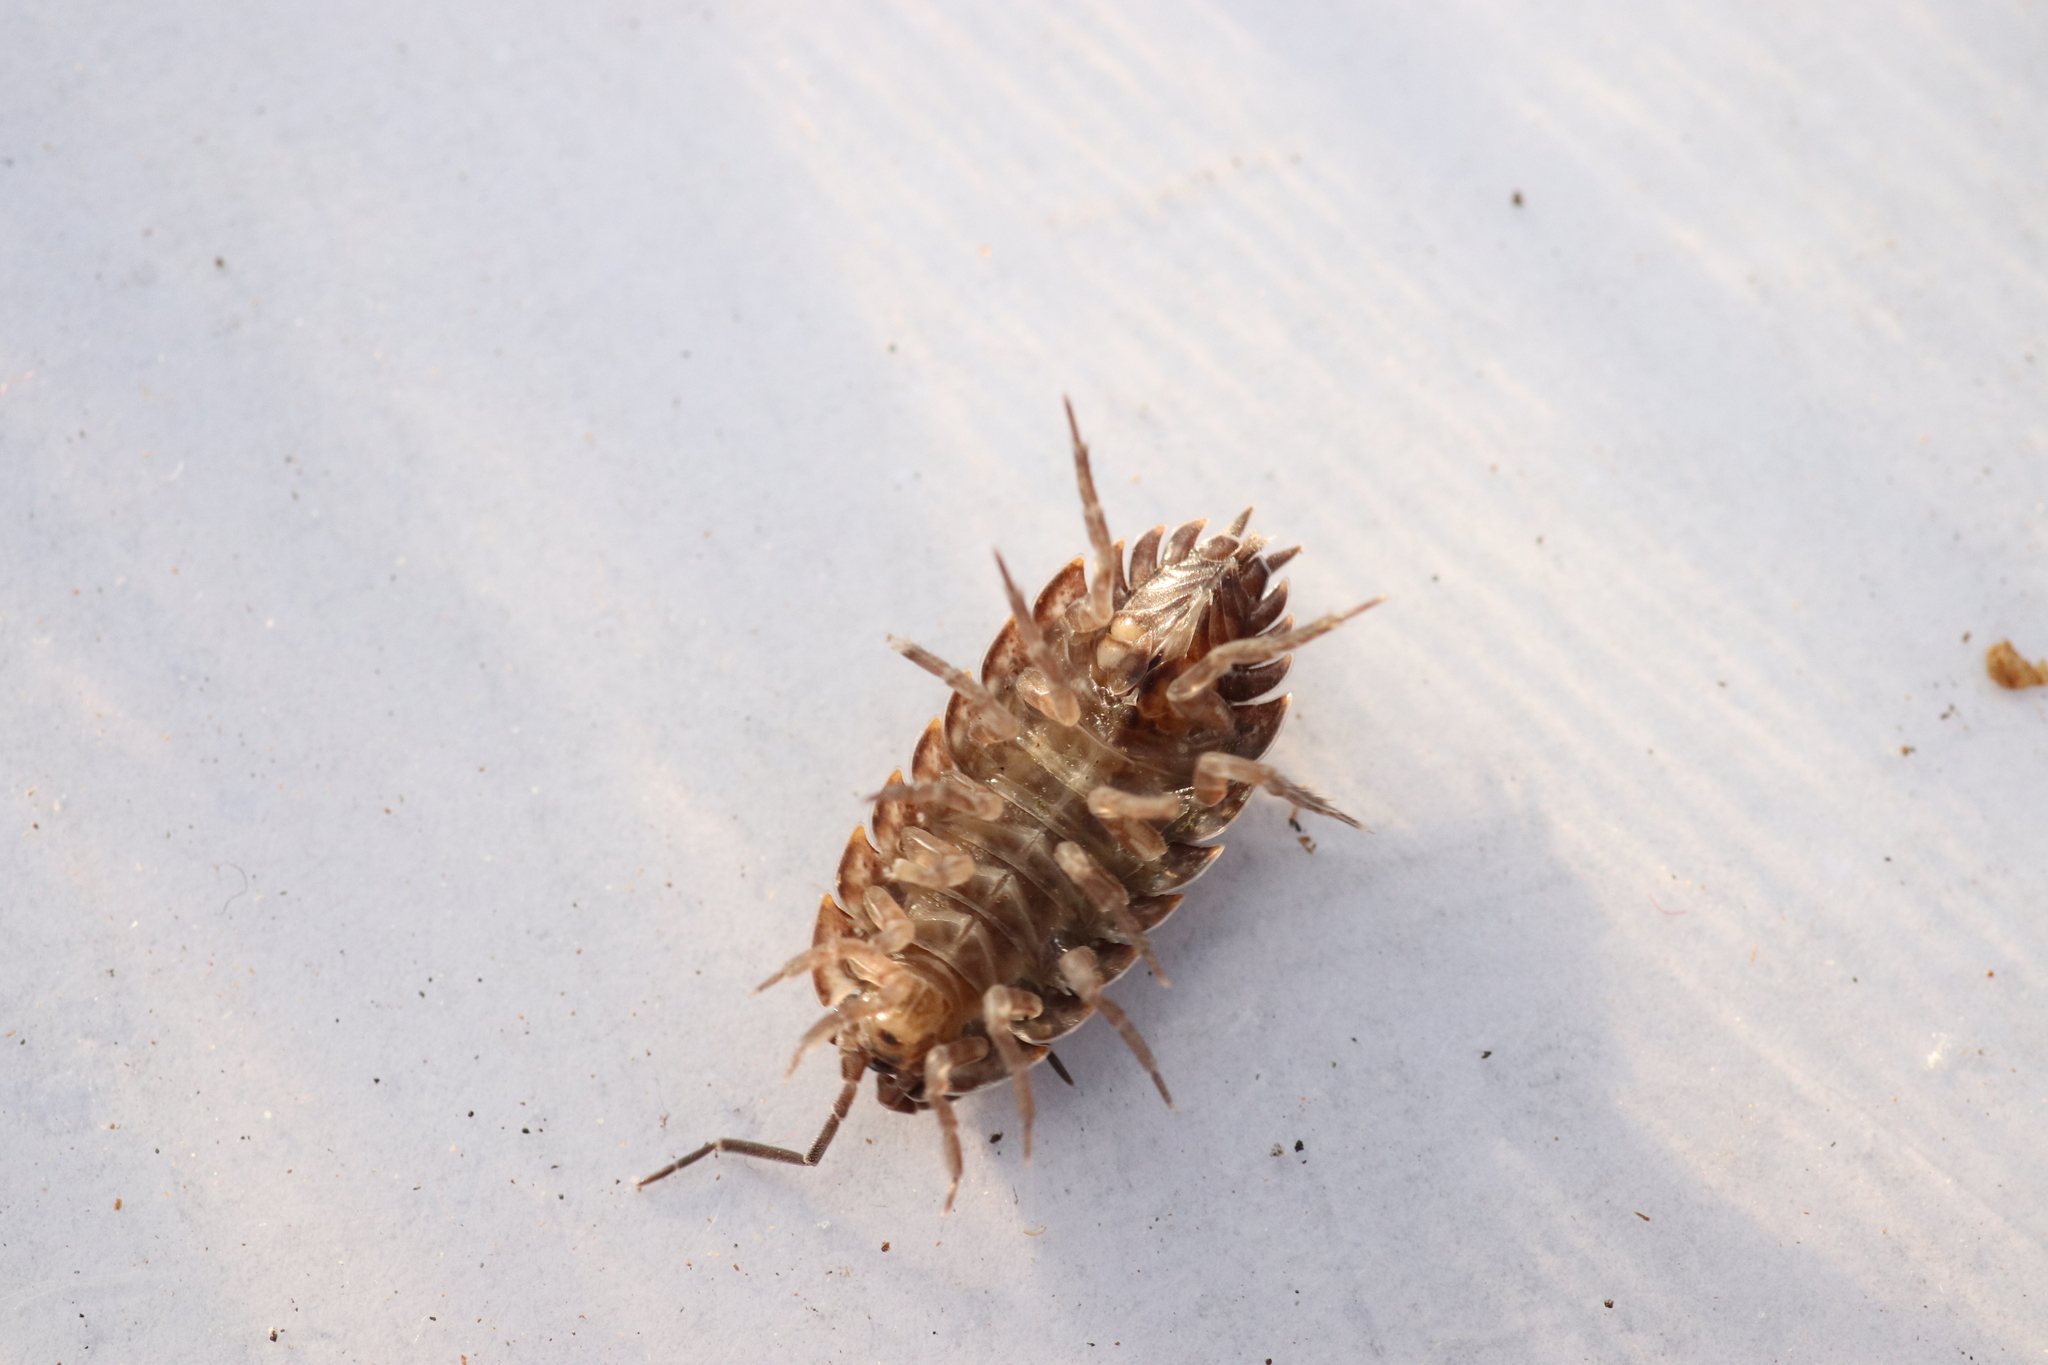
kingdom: Animalia
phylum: Arthropoda
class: Malacostraca
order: Isopoda
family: Porcellionidae
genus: Porcellio
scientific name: Porcellio montanus
